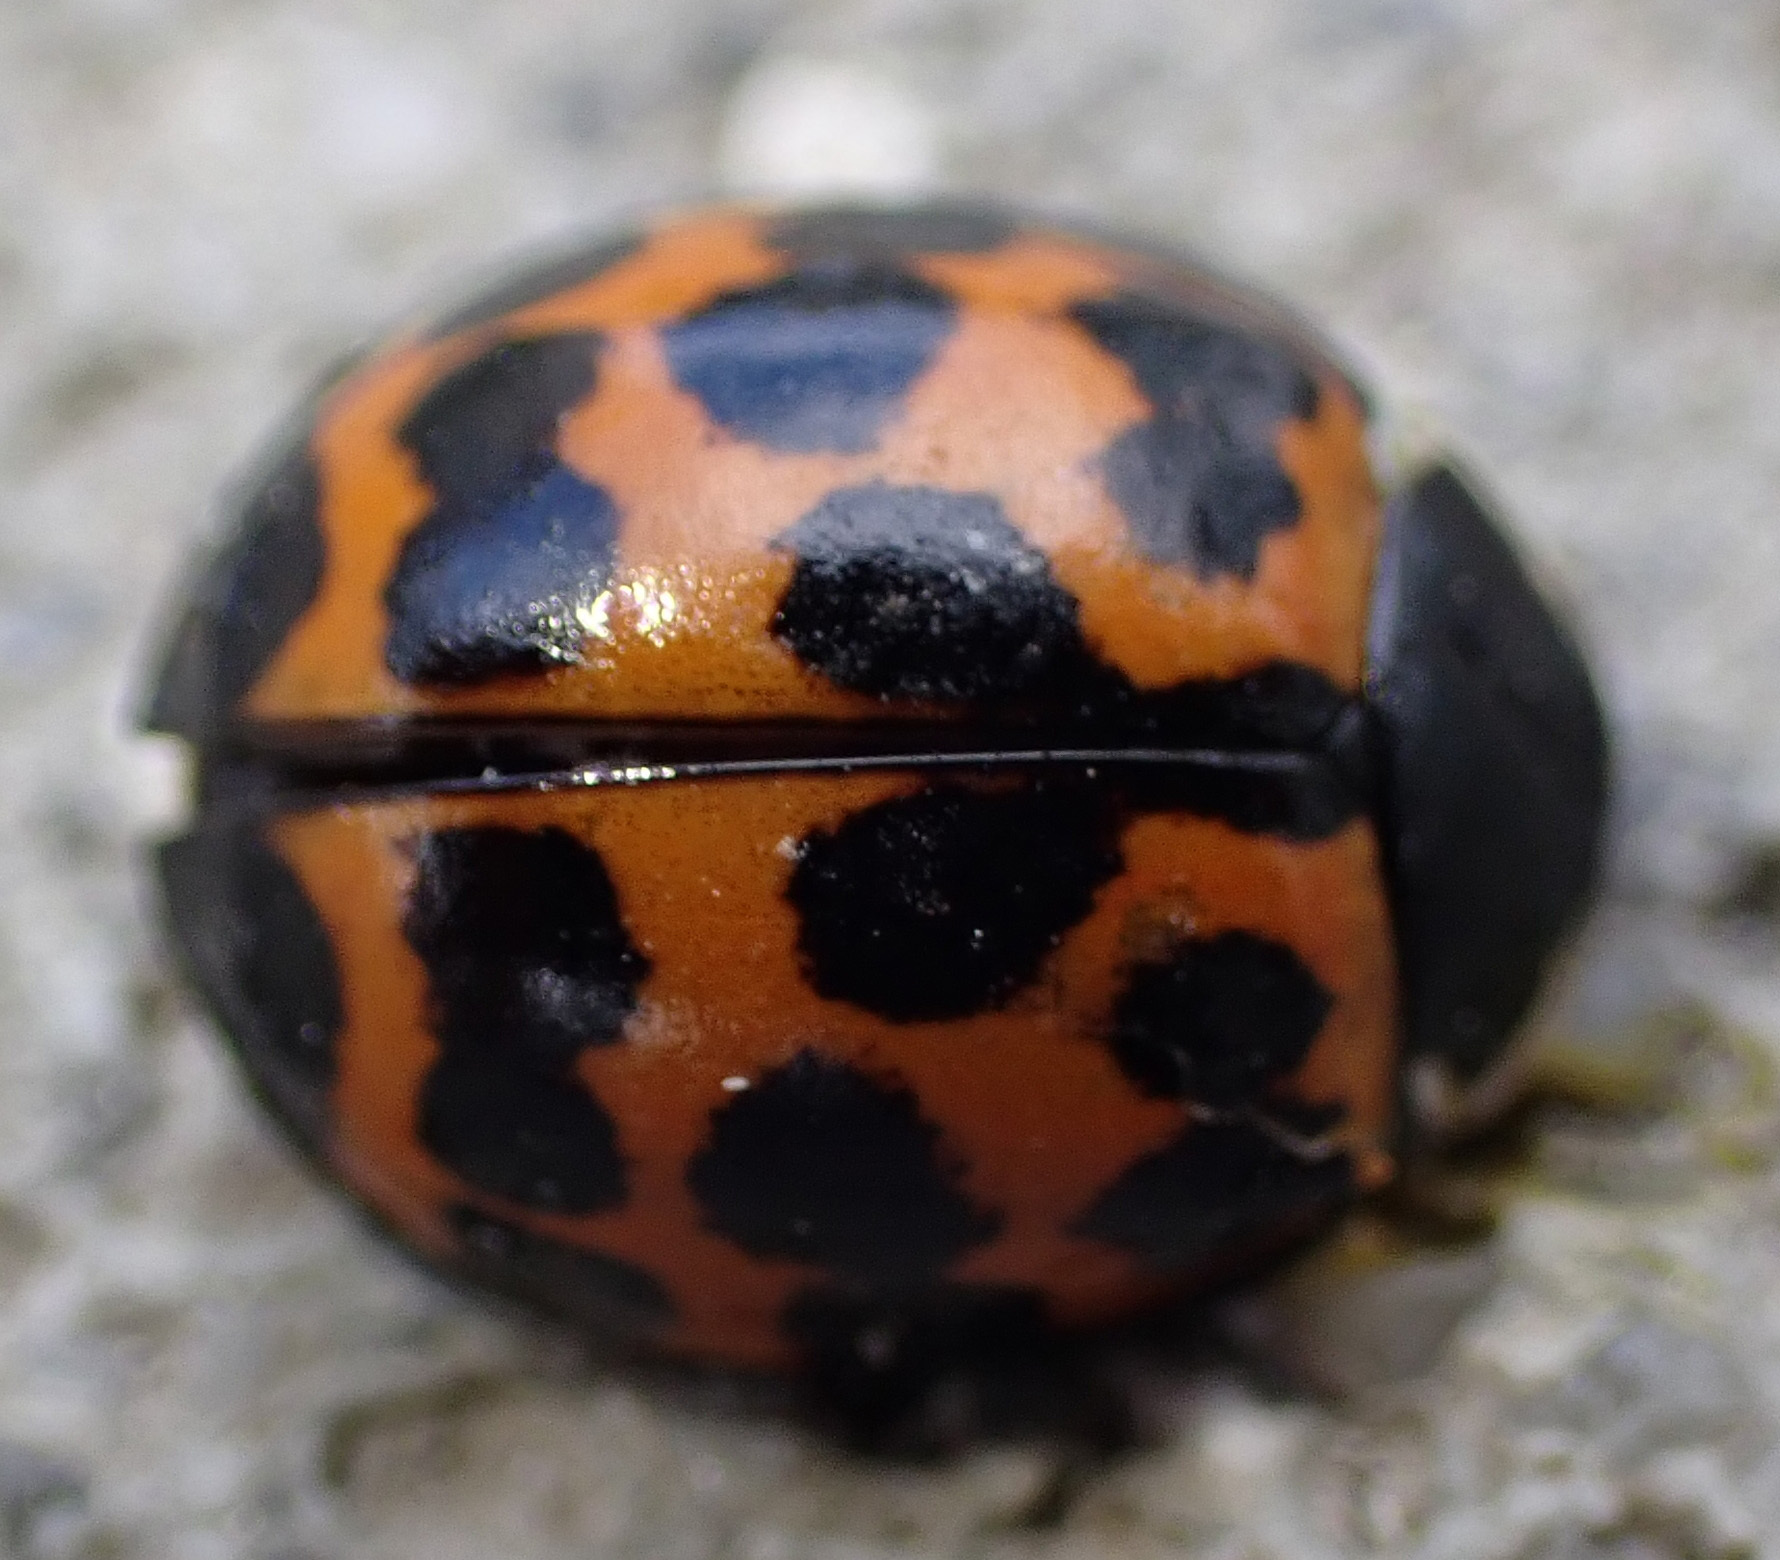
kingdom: Animalia
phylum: Arthropoda
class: Insecta
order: Coleoptera
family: Coccinellidae
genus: Harmonia
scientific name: Harmonia axyridis
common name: Harlequin ladybird
